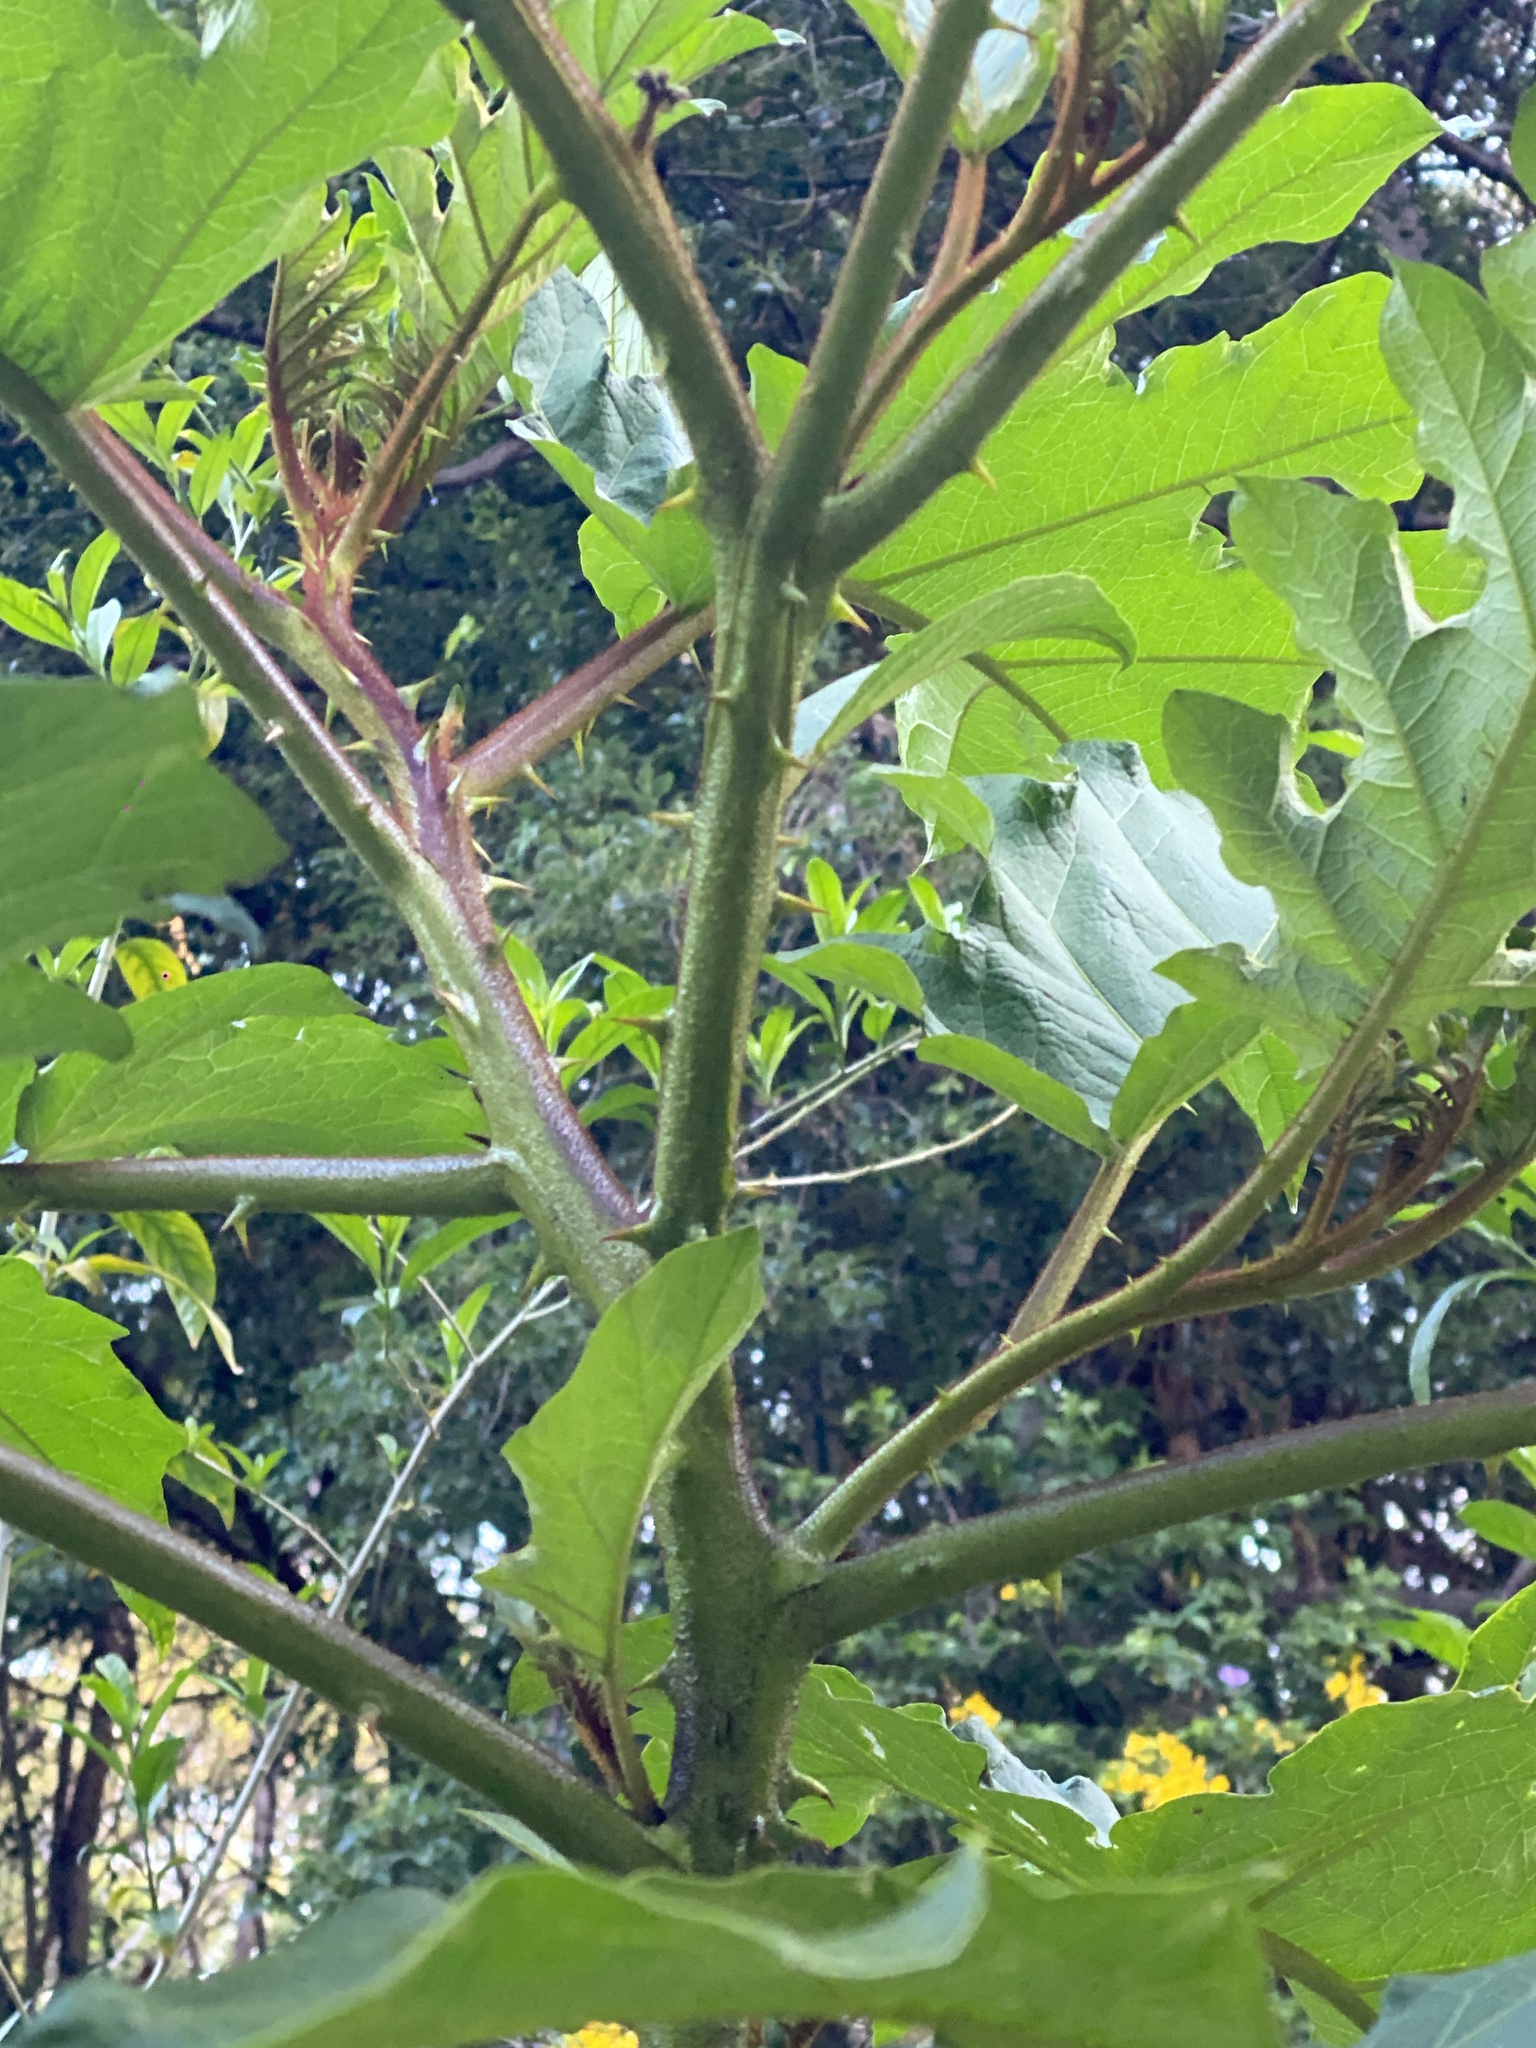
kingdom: Plantae
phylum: Tracheophyta
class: Magnoliopsida
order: Solanales
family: Solanaceae
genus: Solanum
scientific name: Solanum chrysotrichum
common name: Nightshade
